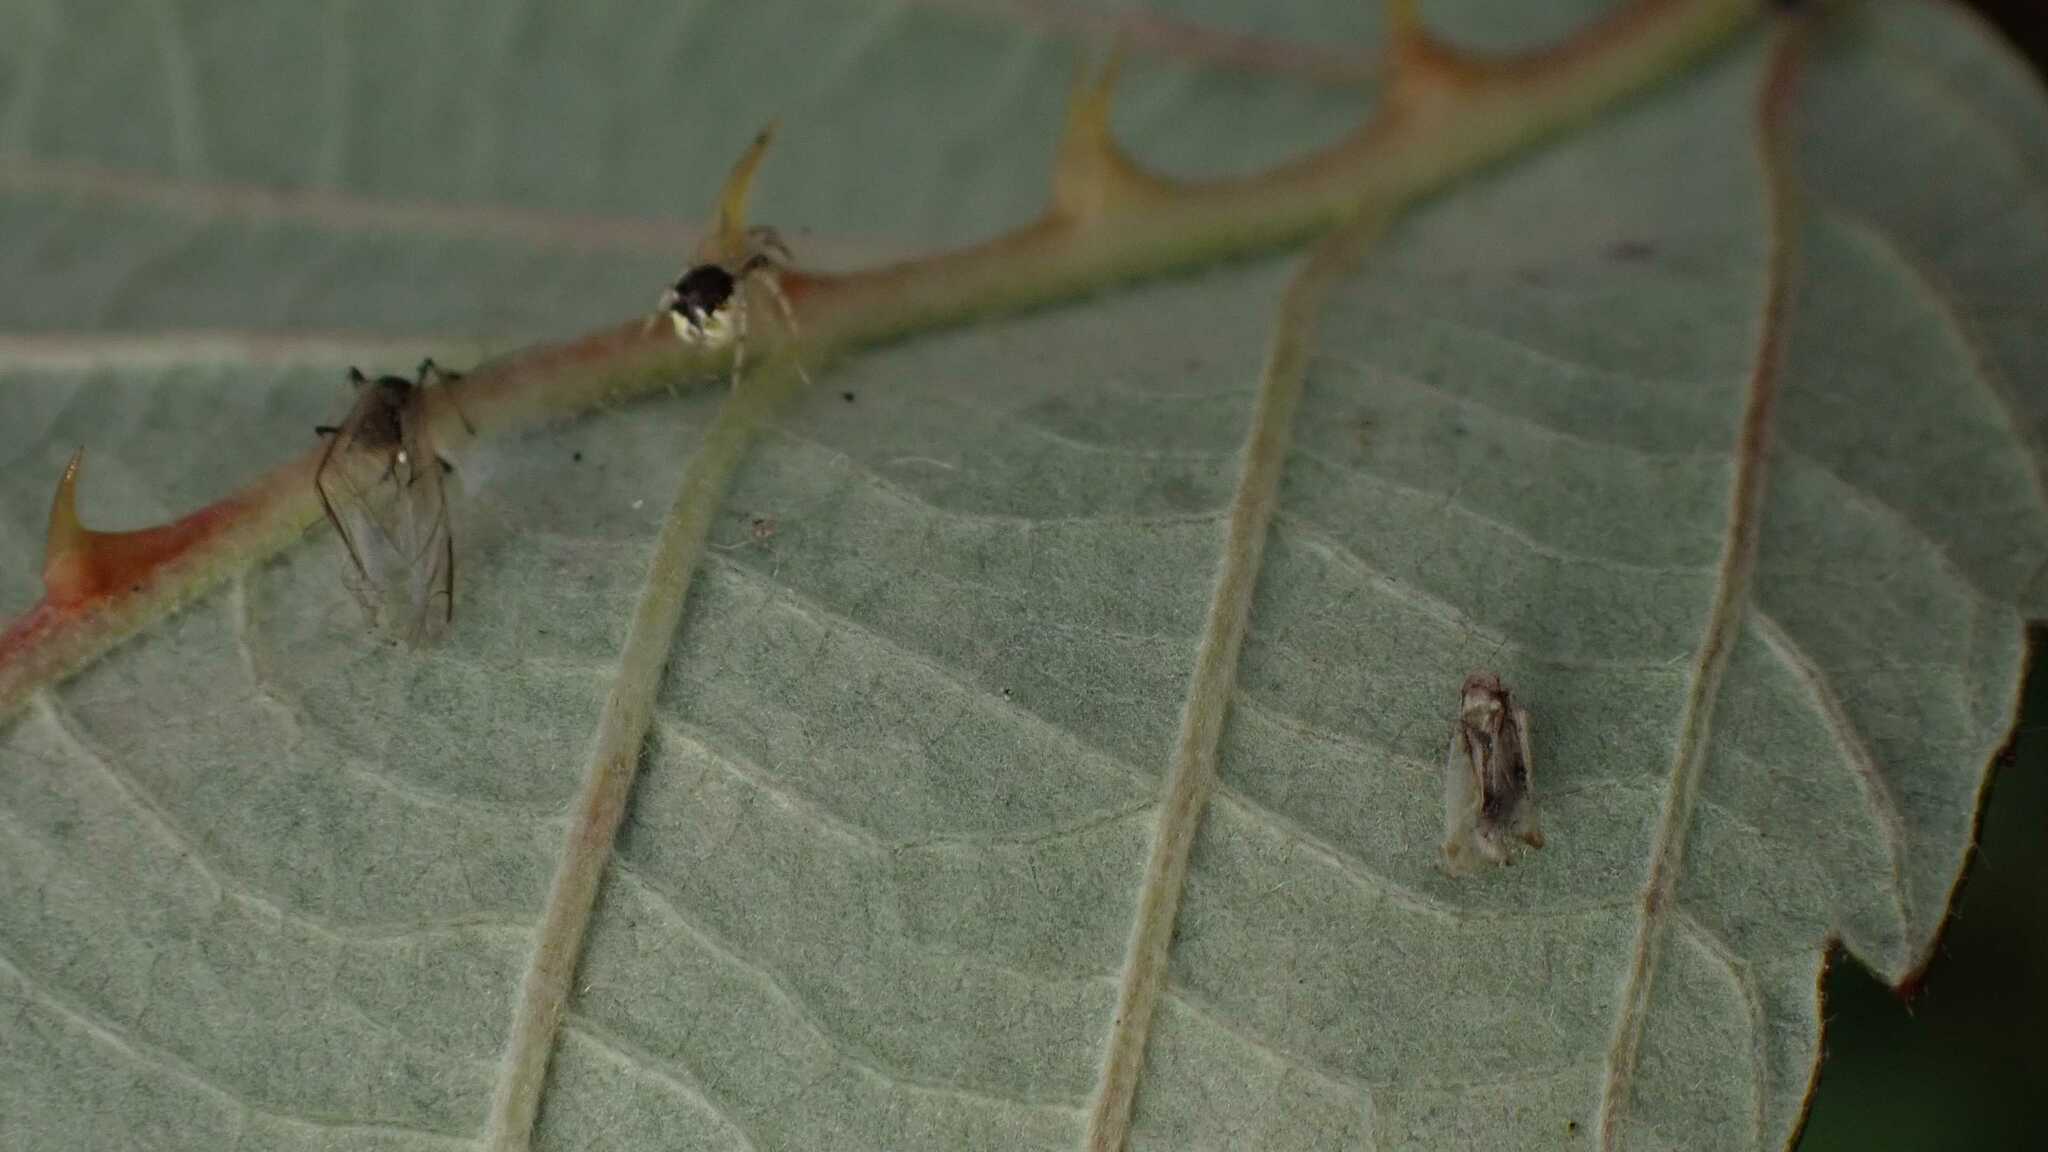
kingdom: Animalia
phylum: Arthropoda
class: Arachnida
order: Araneae
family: Theridiidae
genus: Theridion
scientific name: Theridion varians
